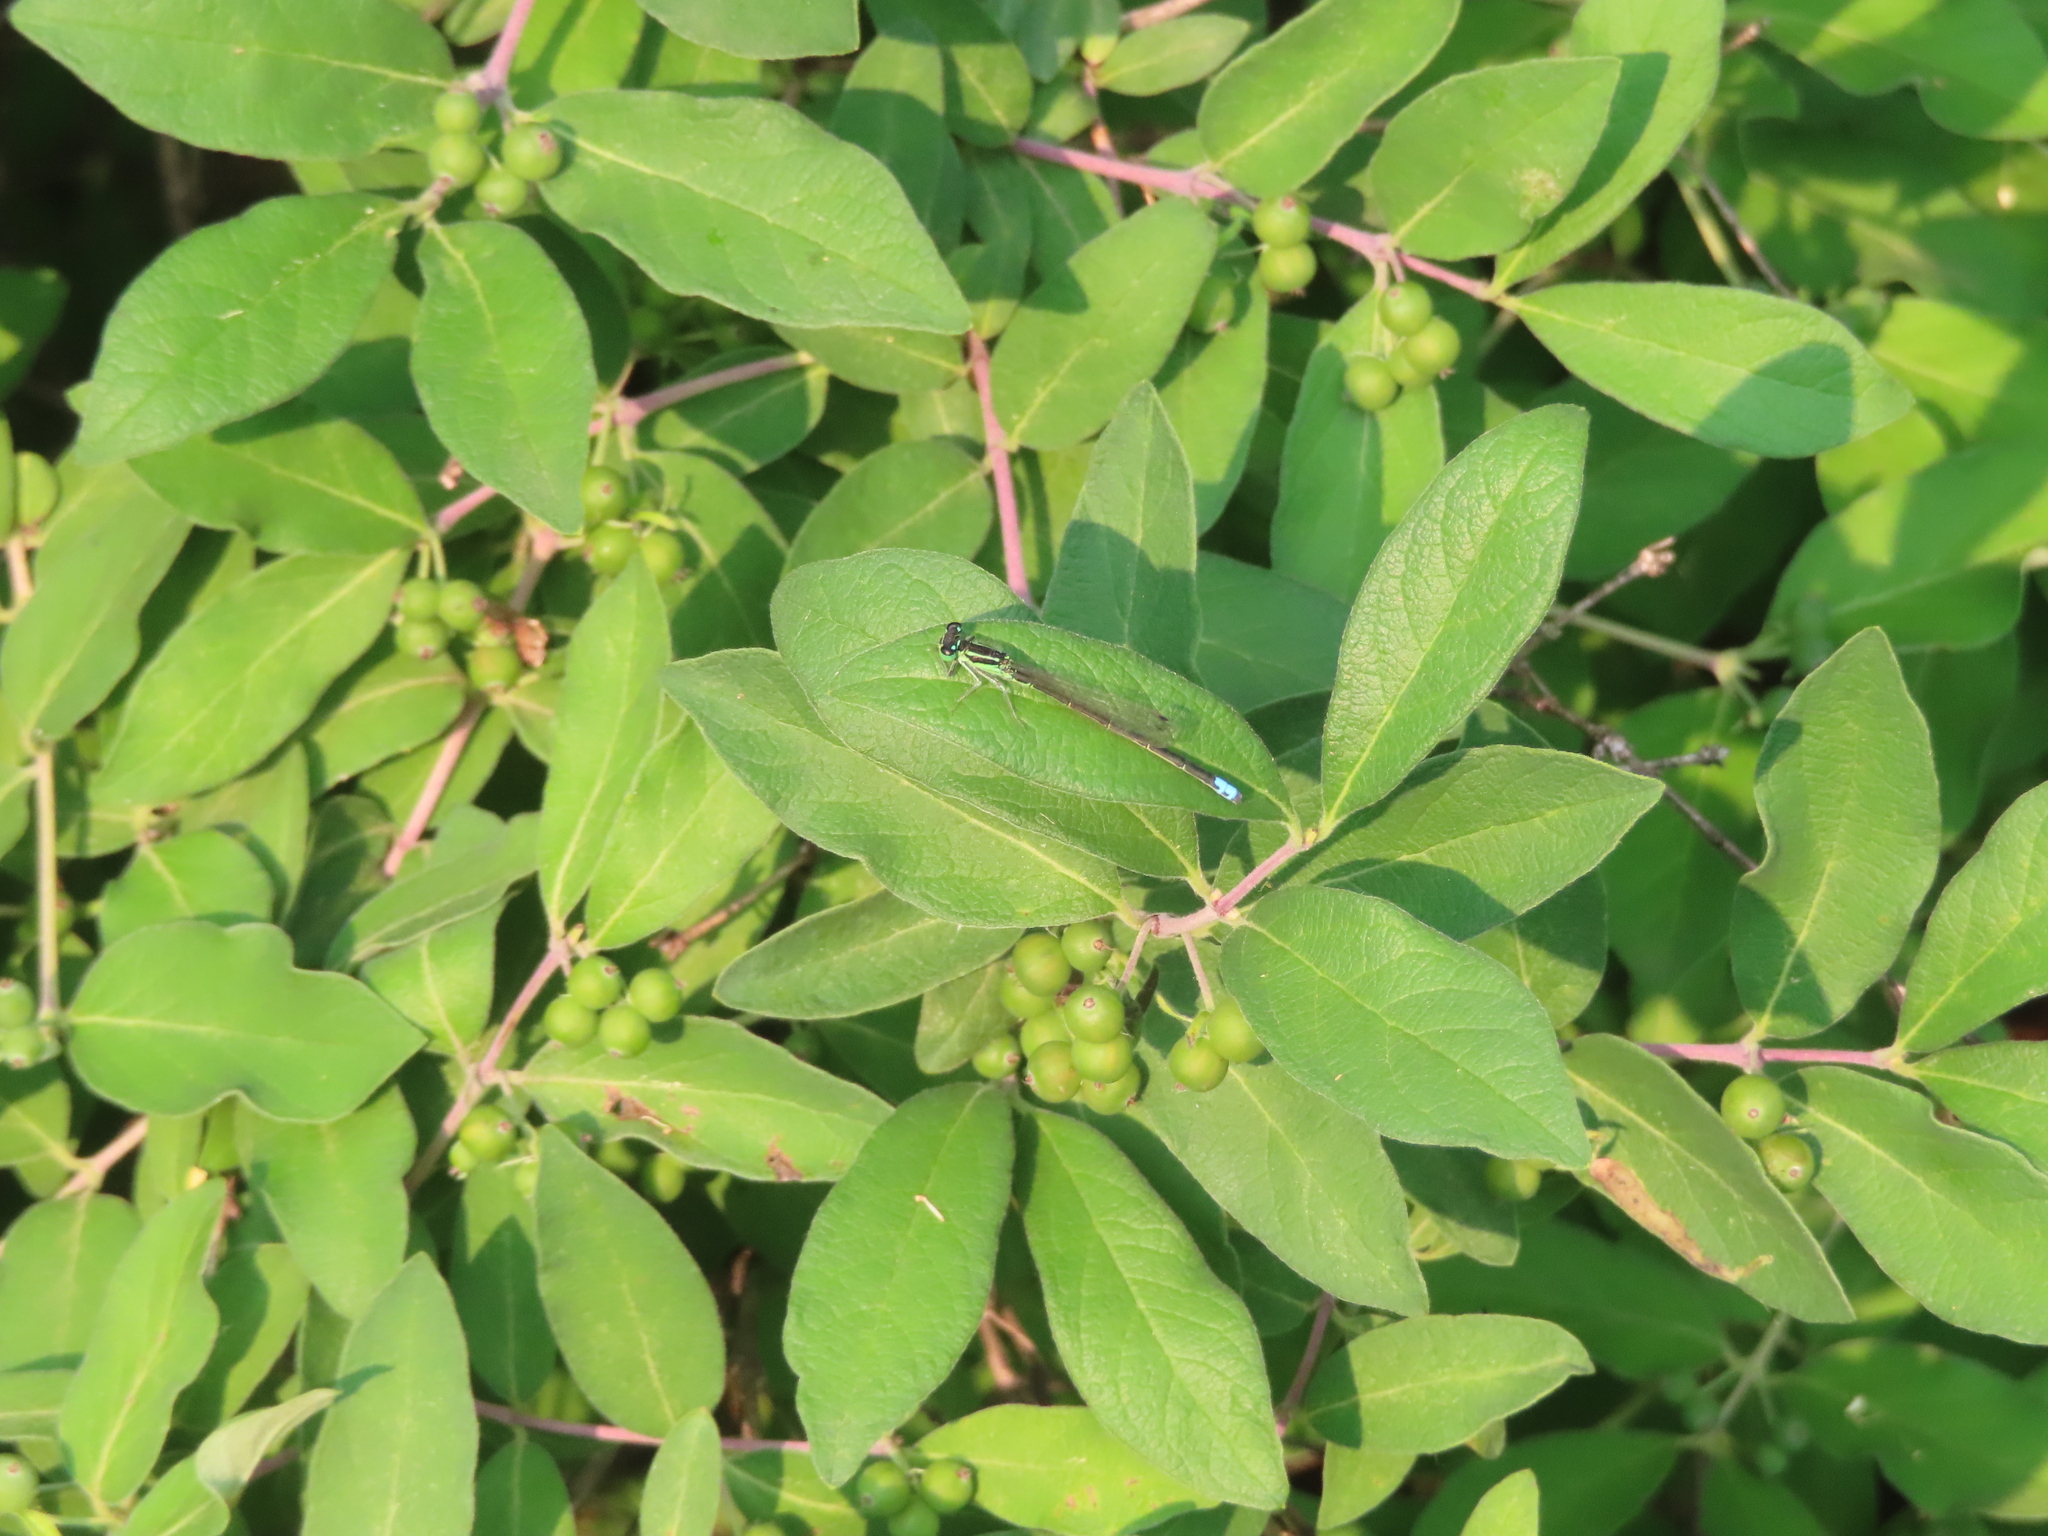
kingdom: Animalia
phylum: Arthropoda
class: Insecta
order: Odonata
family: Coenagrionidae
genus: Ischnura
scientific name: Ischnura verticalis
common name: Eastern forktail
